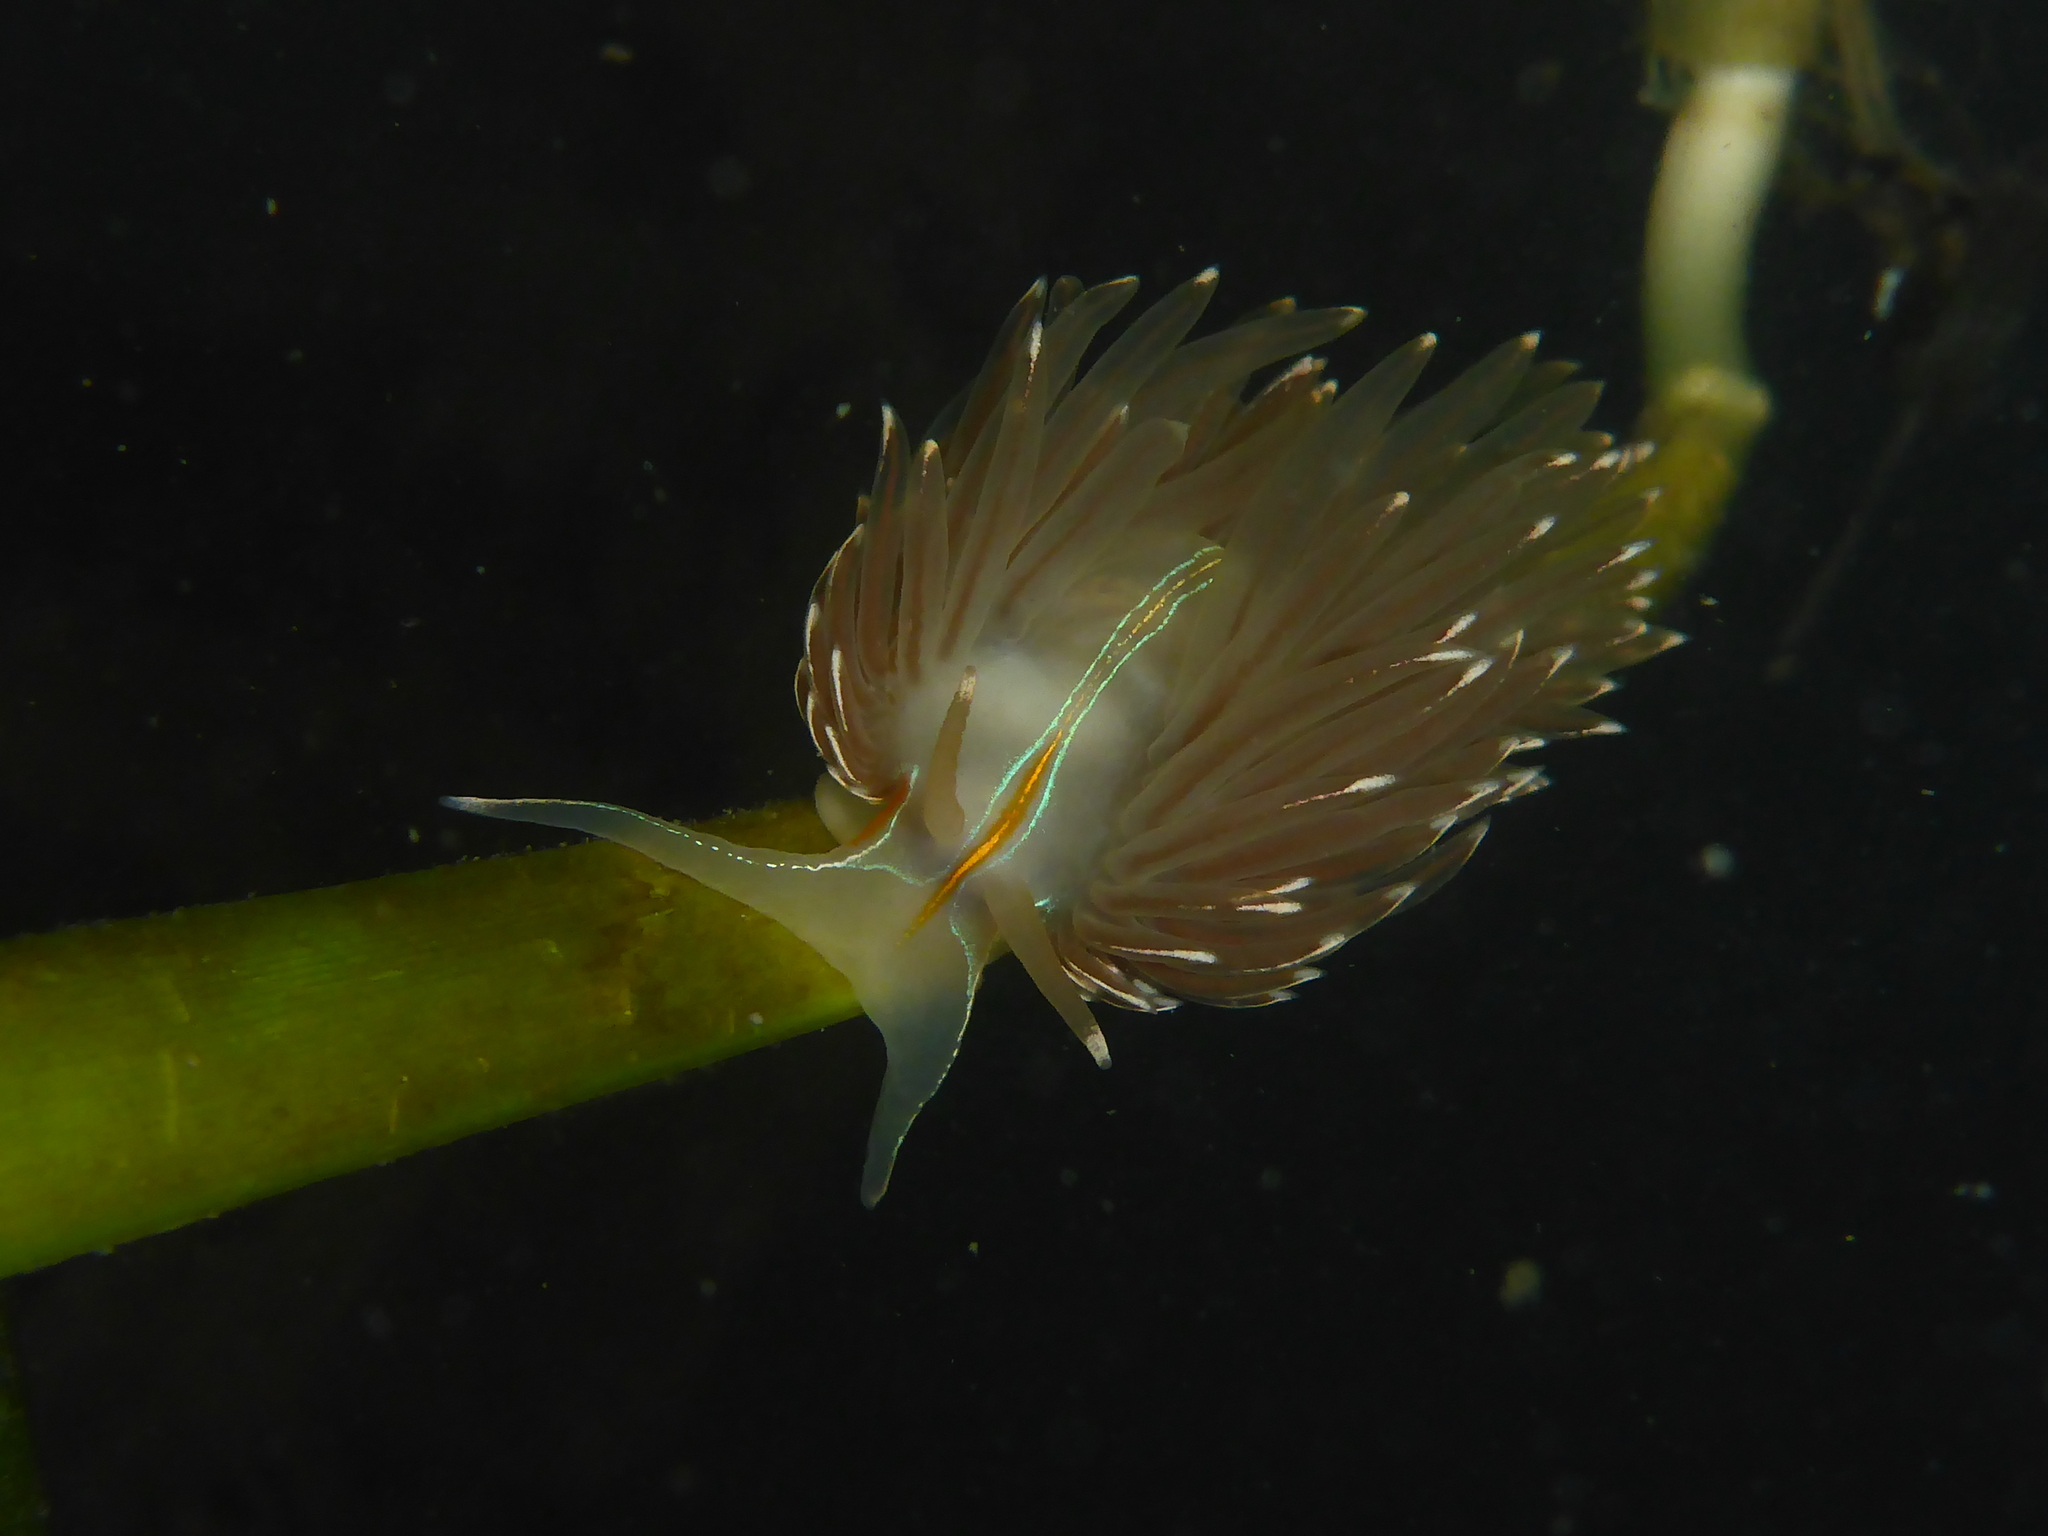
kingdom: Animalia
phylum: Mollusca
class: Gastropoda
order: Nudibranchia
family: Myrrhinidae
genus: Hermissenda
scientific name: Hermissenda crassicornis
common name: Hermissenda
